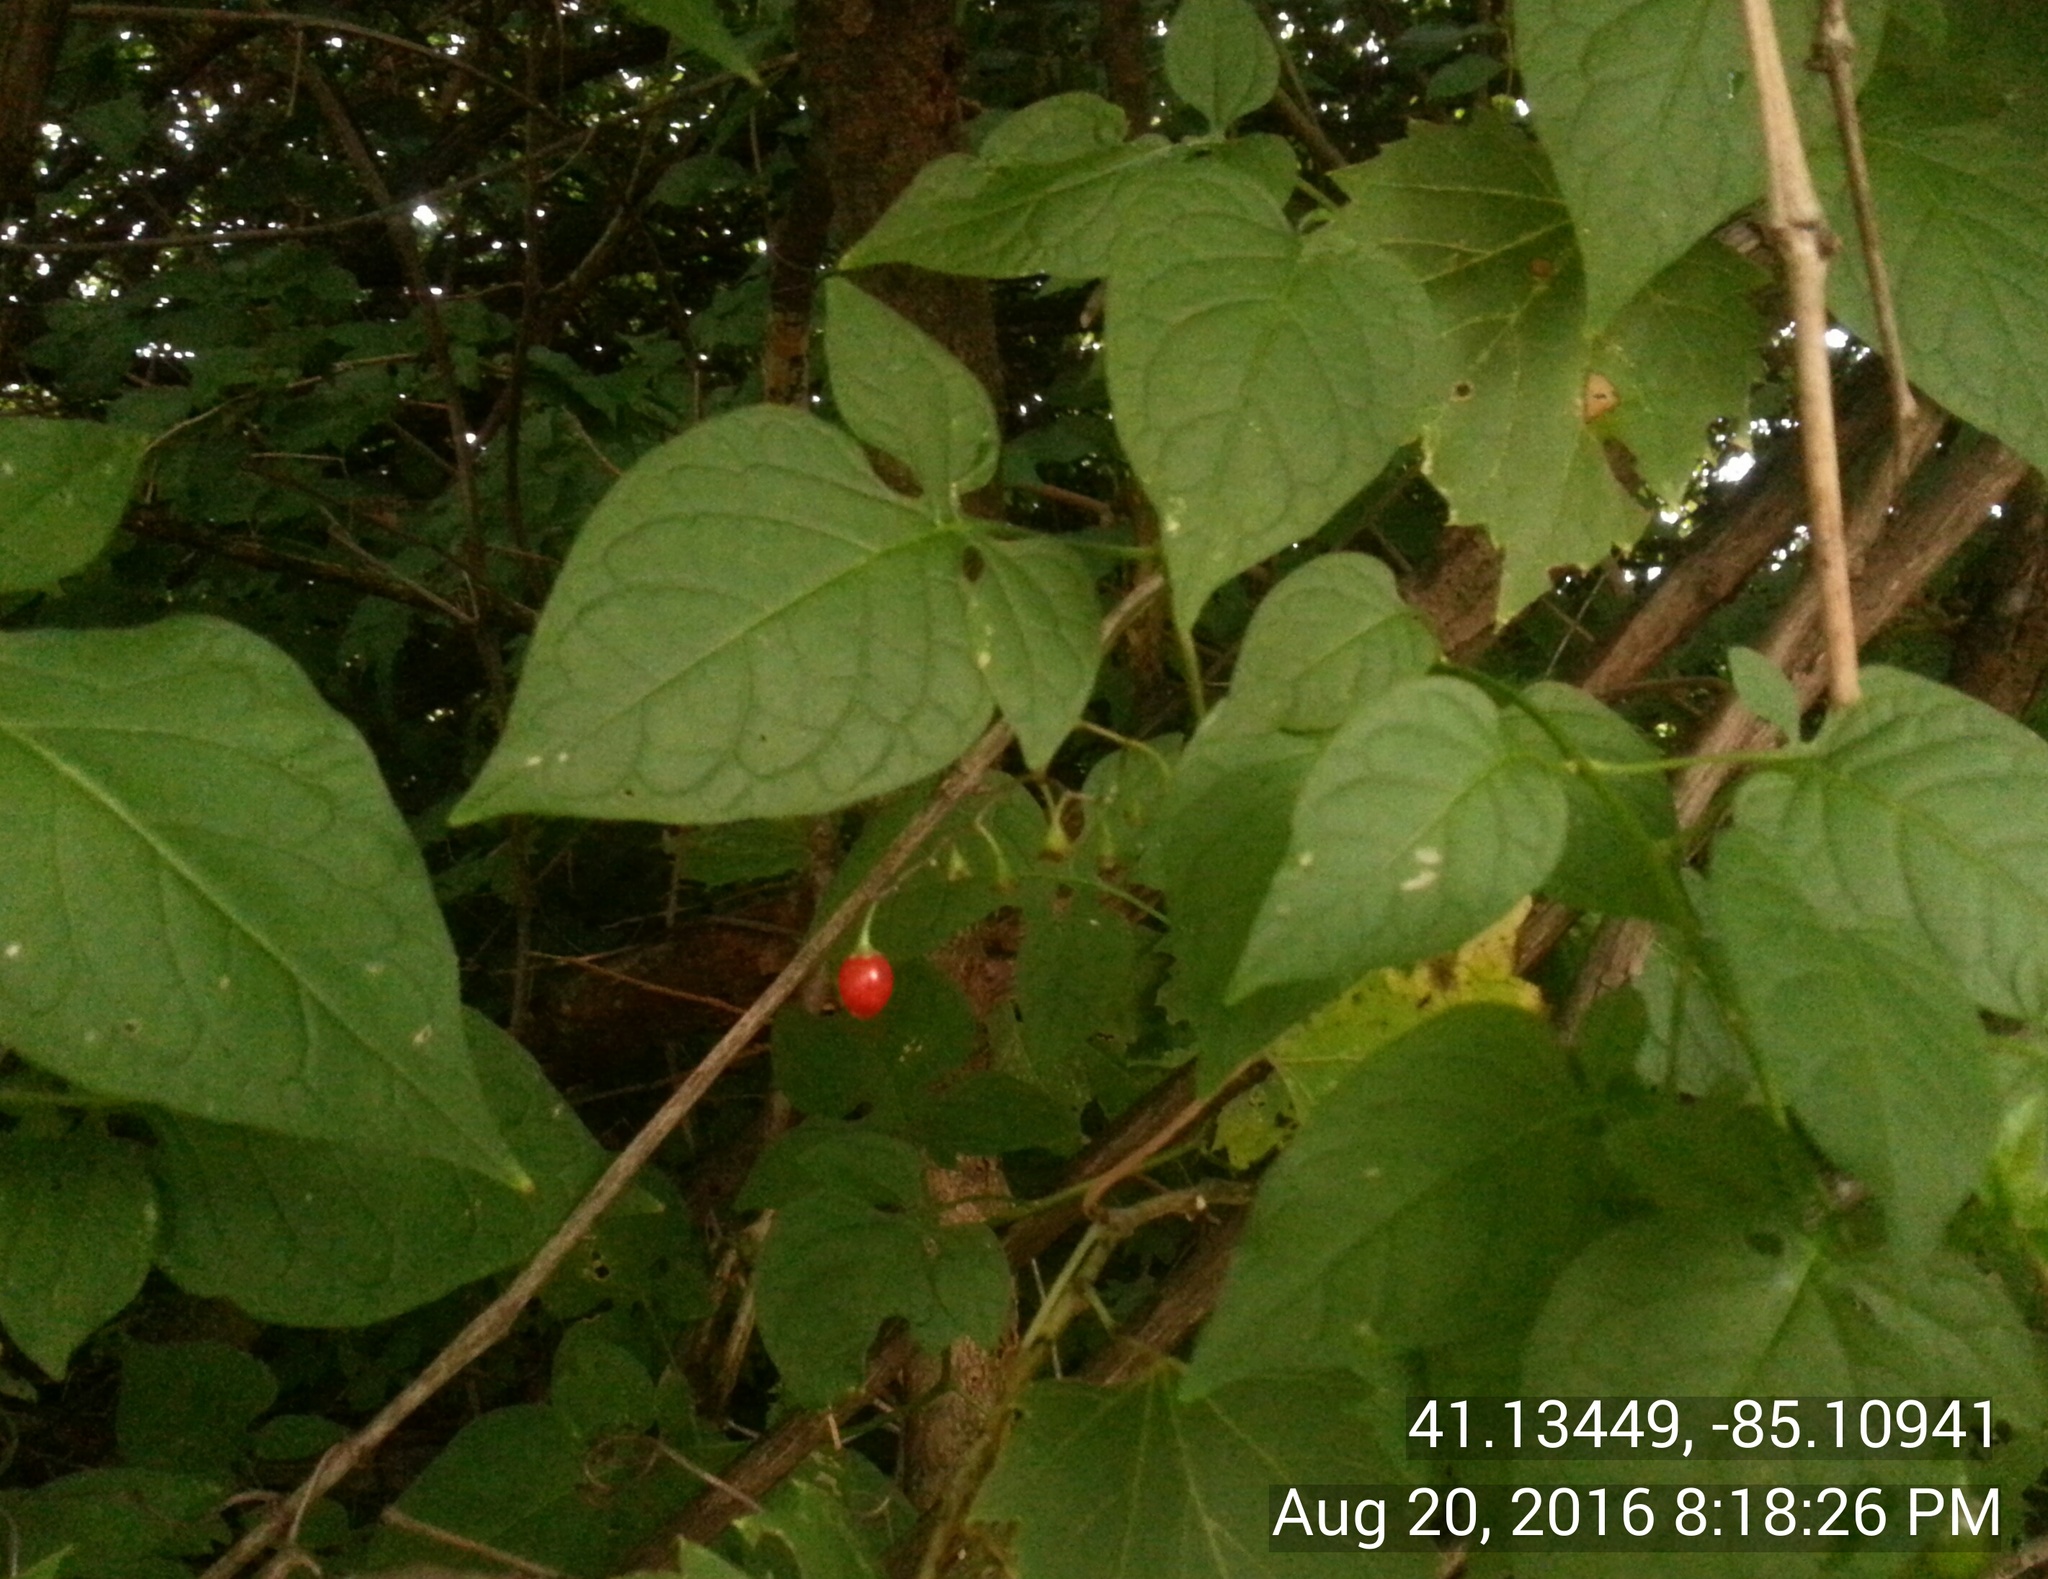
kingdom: Plantae
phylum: Tracheophyta
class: Magnoliopsida
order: Solanales
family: Solanaceae
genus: Solanum
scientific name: Solanum dulcamara
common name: Climbing nightshade
